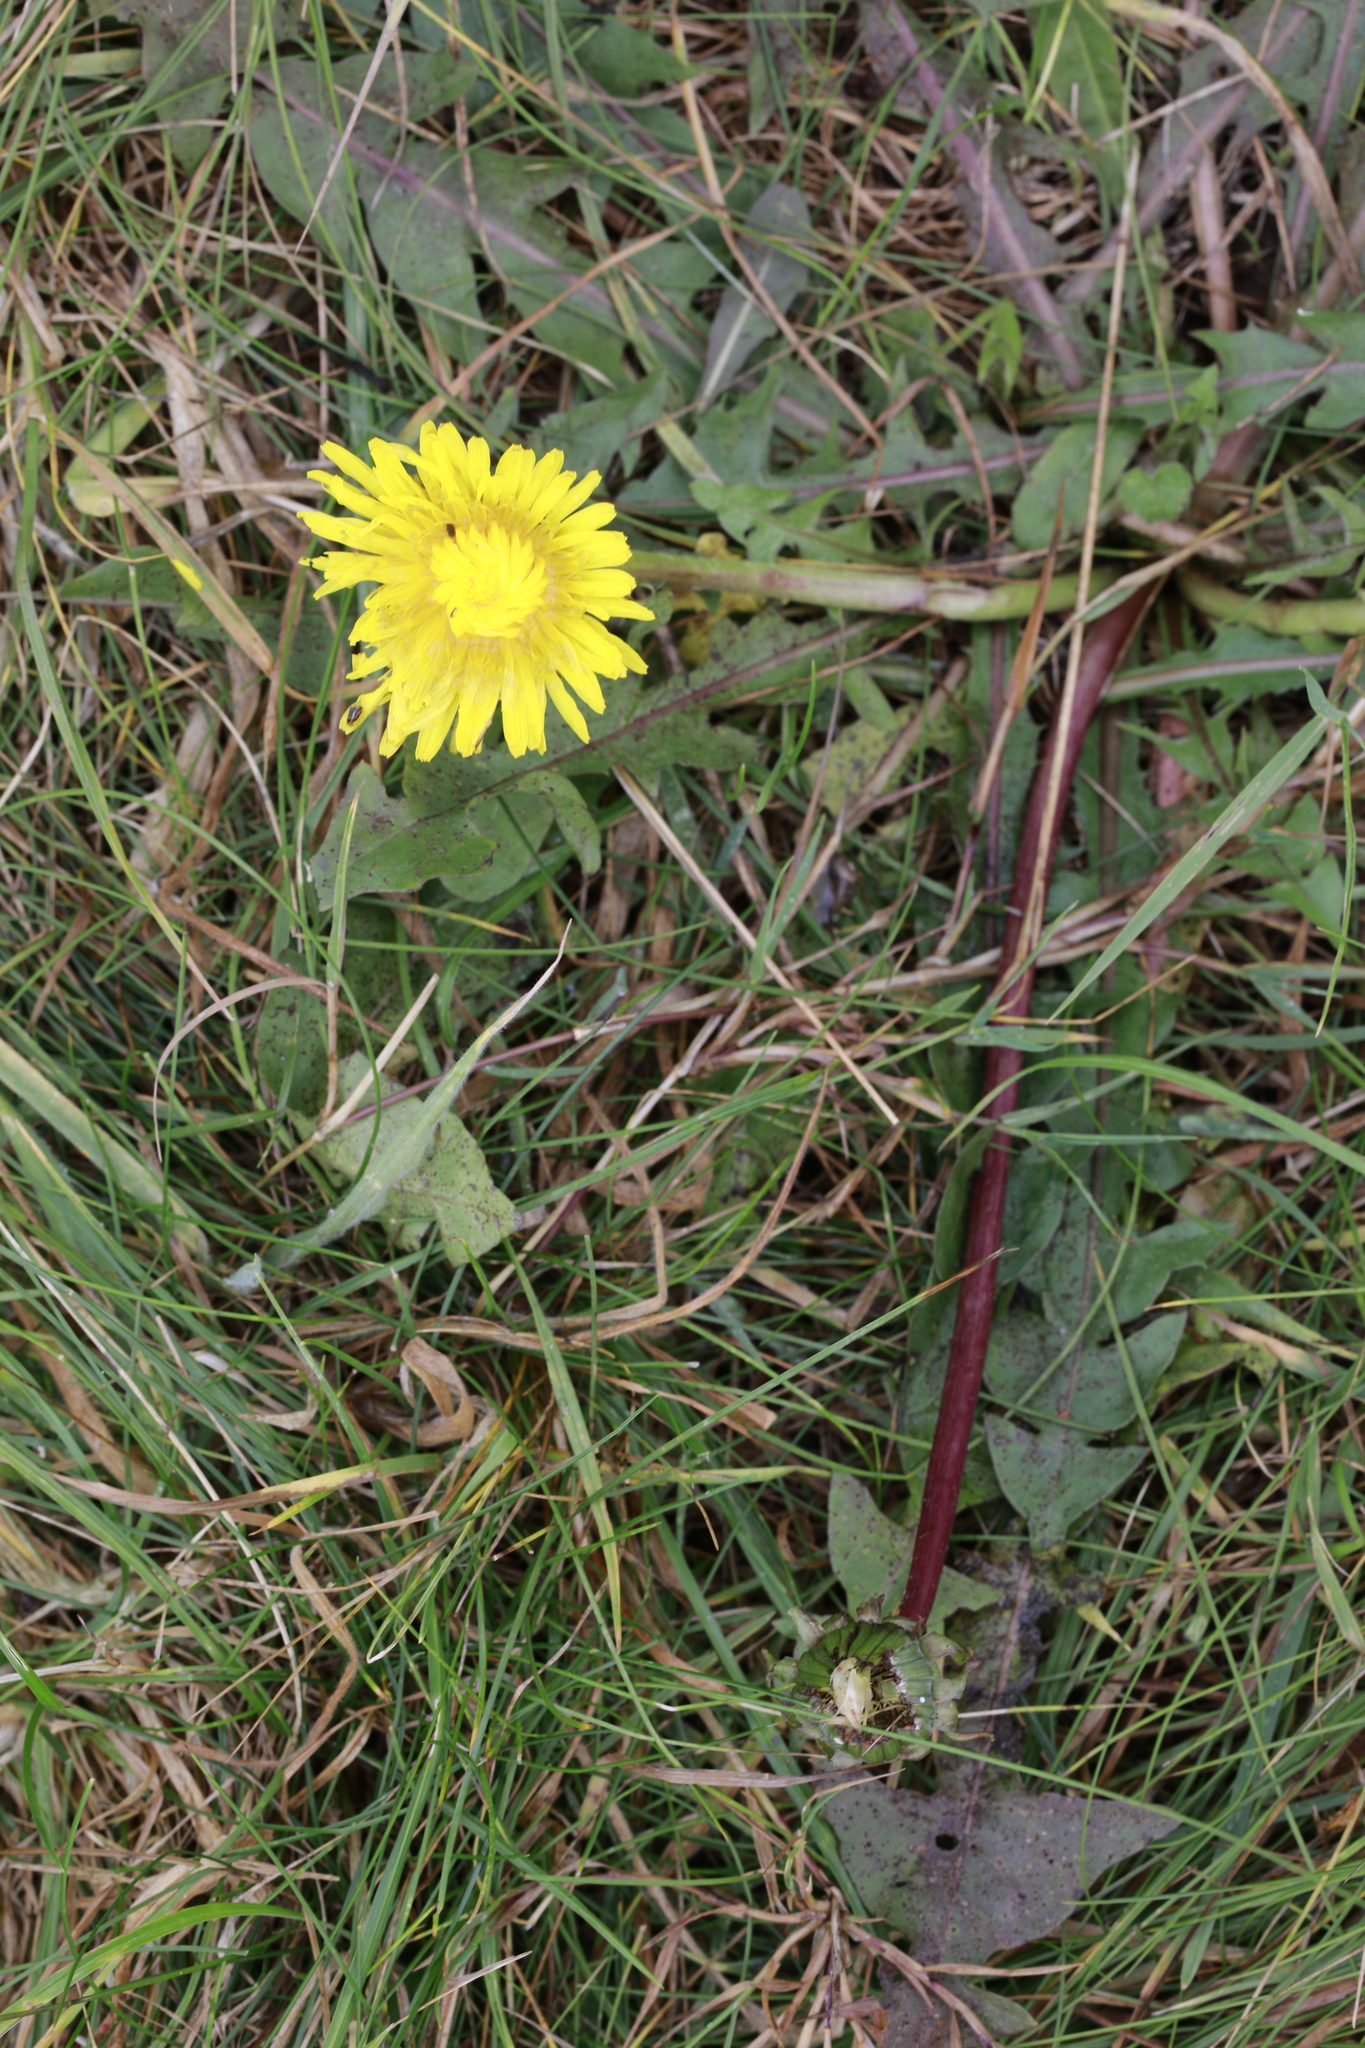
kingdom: Plantae
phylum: Tracheophyta
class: Magnoliopsida
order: Asterales
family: Asteraceae
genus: Taraxacum
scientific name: Taraxacum officinale
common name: Common dandelion
